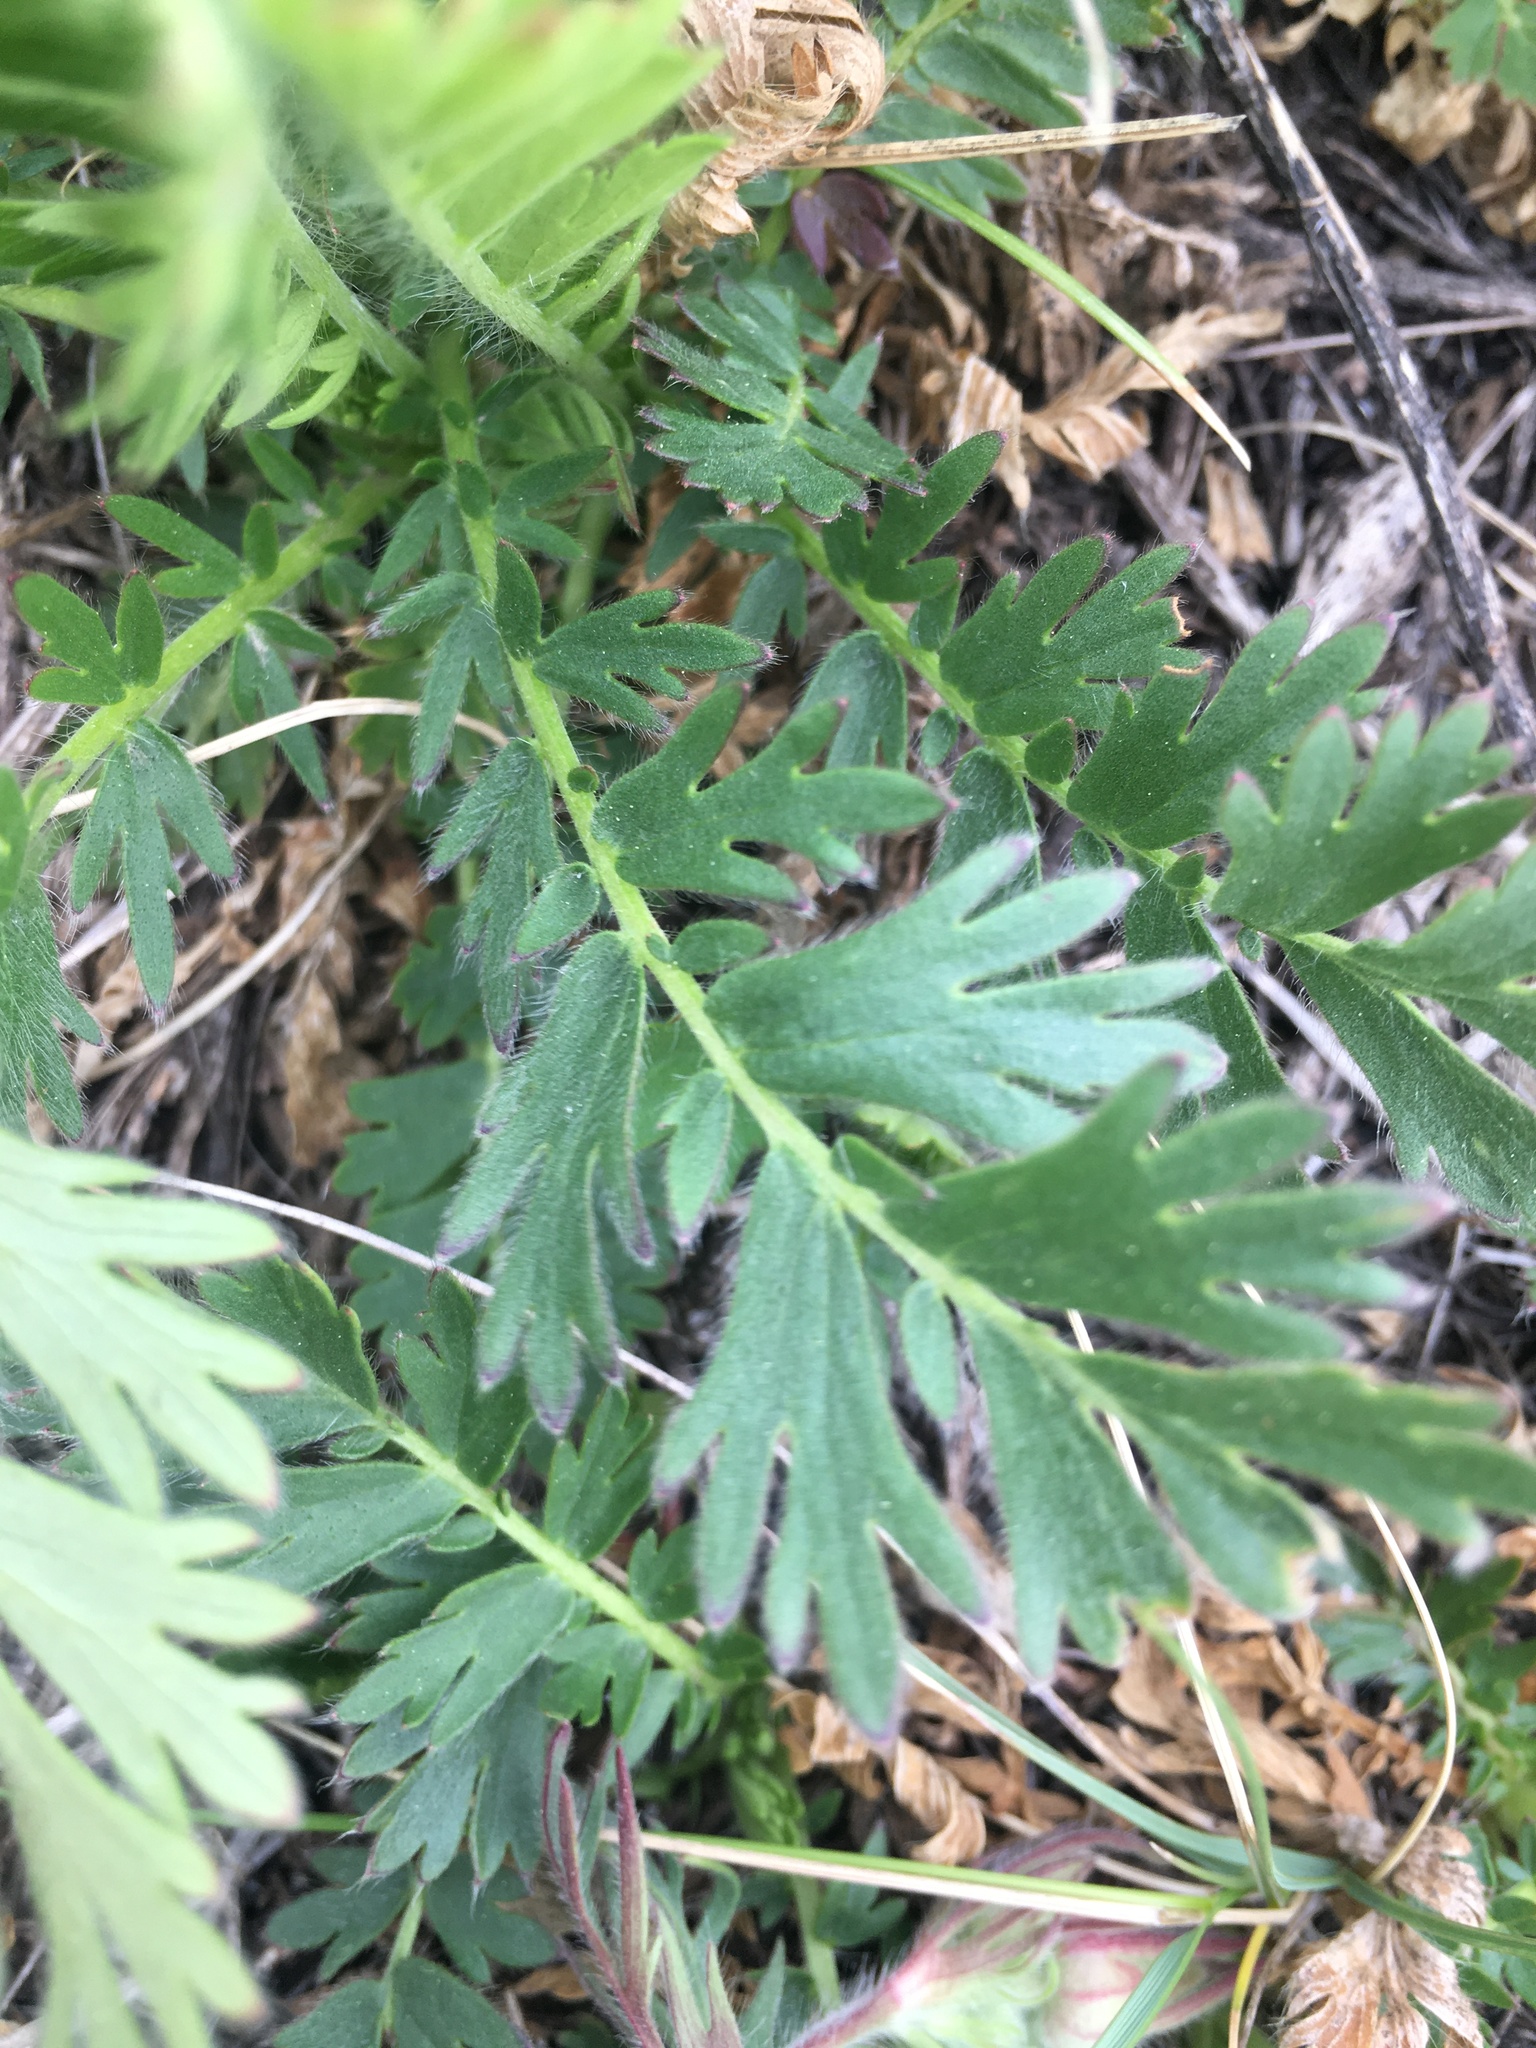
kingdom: Plantae
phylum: Tracheophyta
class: Magnoliopsida
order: Rosales
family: Rosaceae
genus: Geum
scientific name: Geum triflorum
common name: Old man's whiskers
